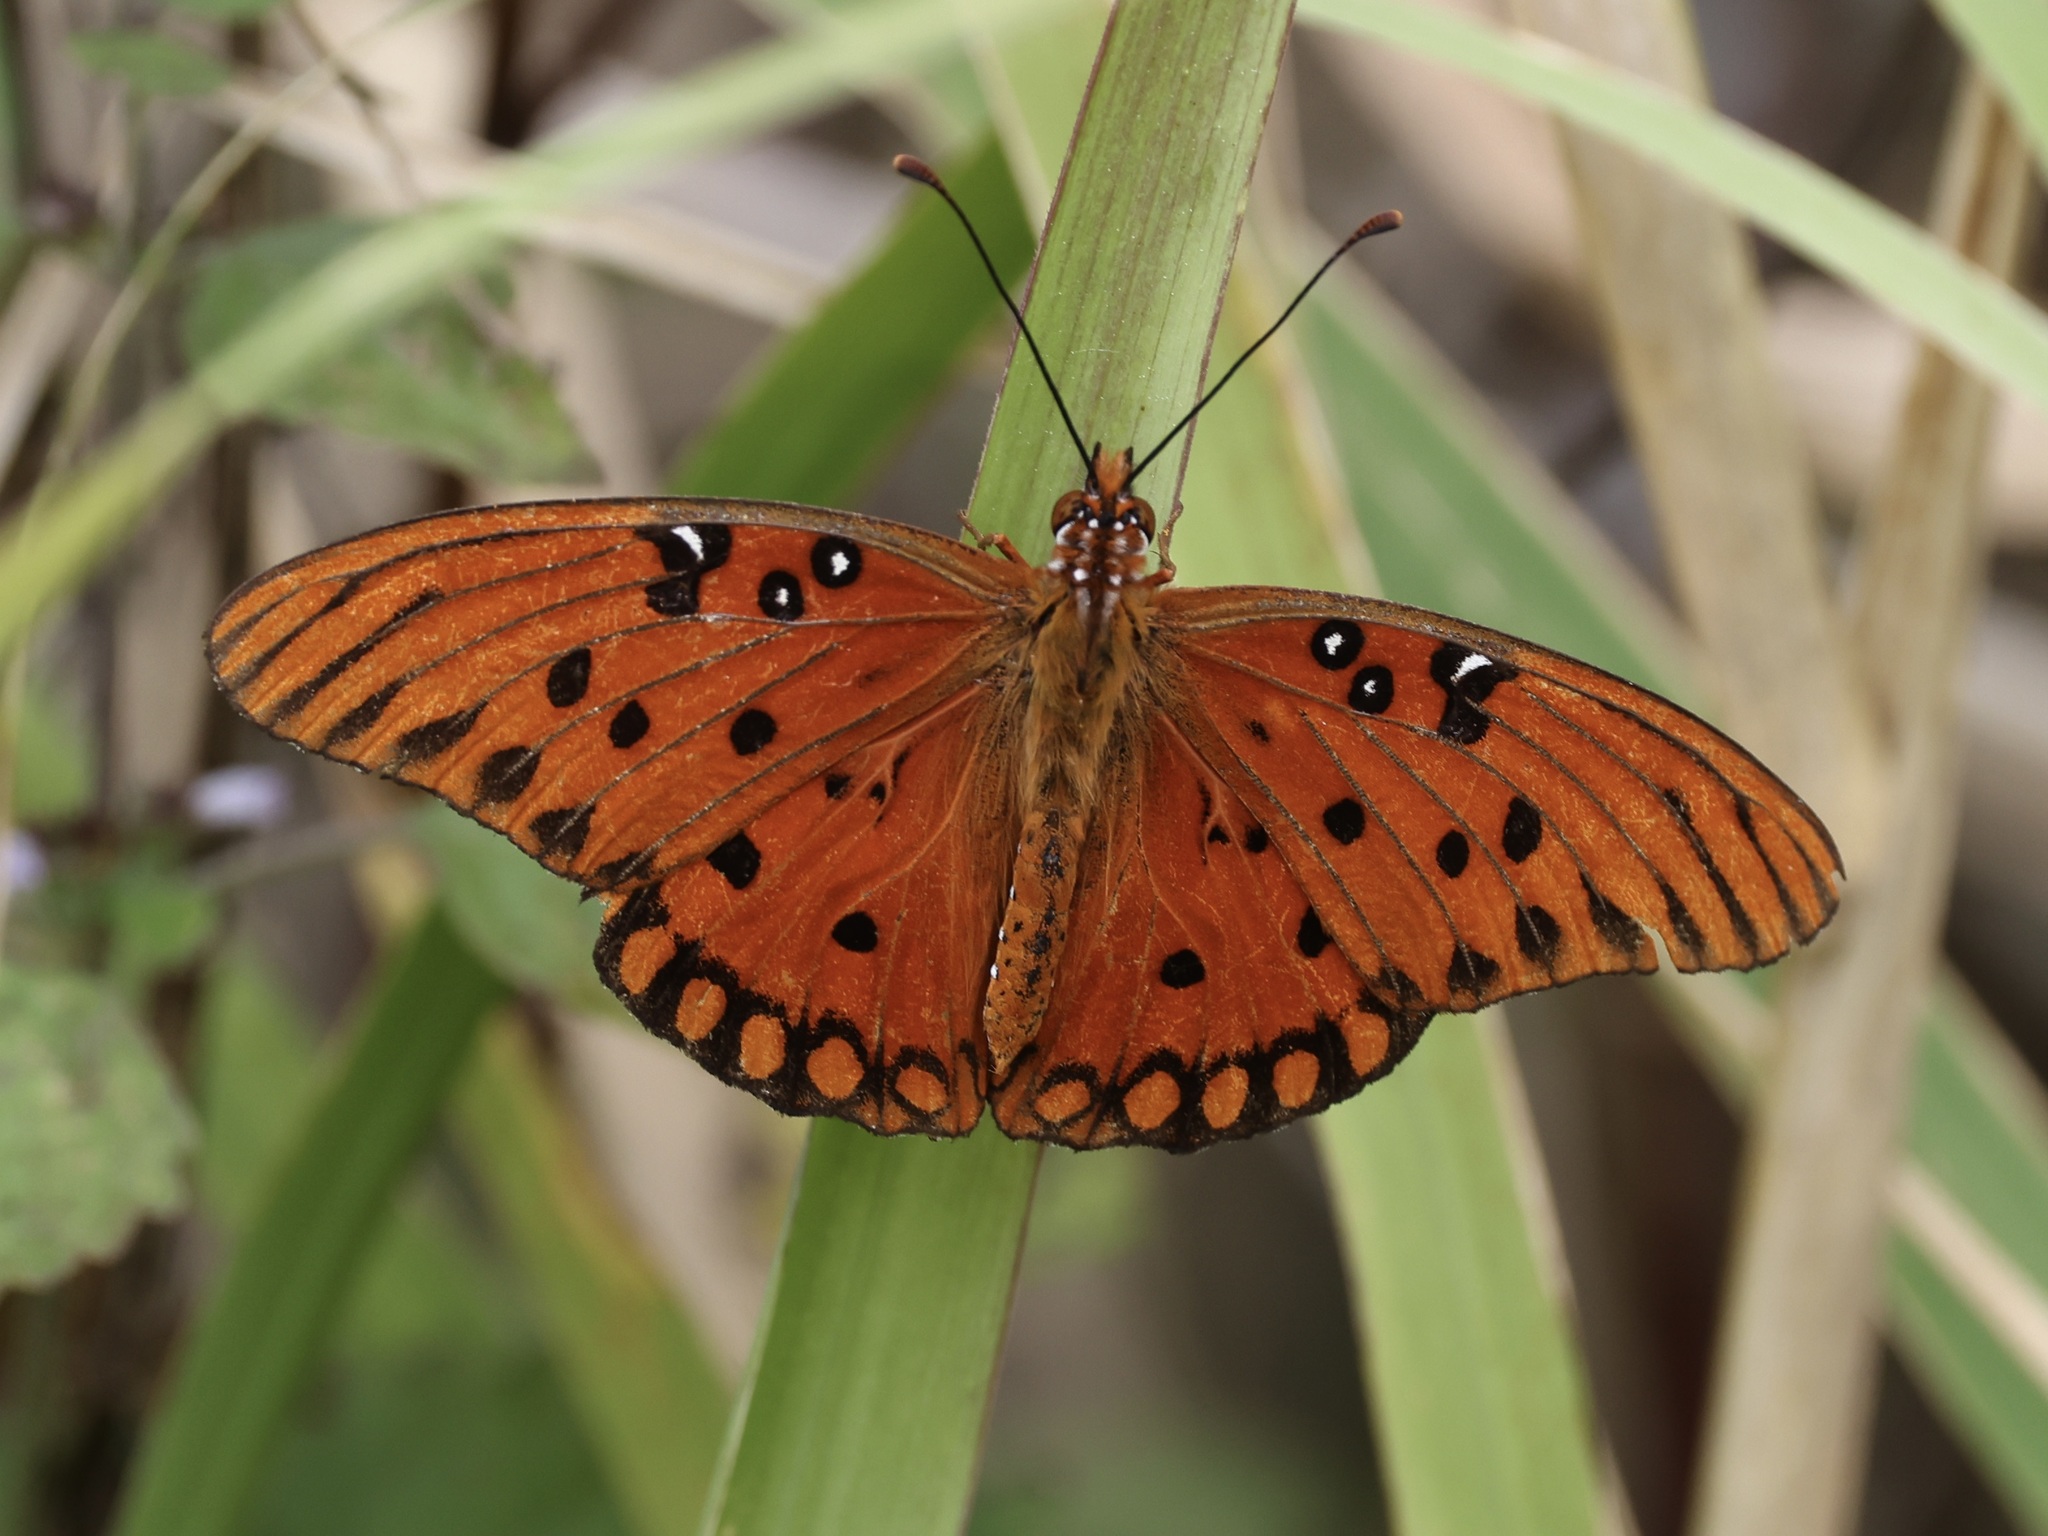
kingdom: Animalia
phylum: Arthropoda
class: Insecta
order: Lepidoptera
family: Nymphalidae
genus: Dione
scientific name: Dione vanillae
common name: Gulf fritillary
